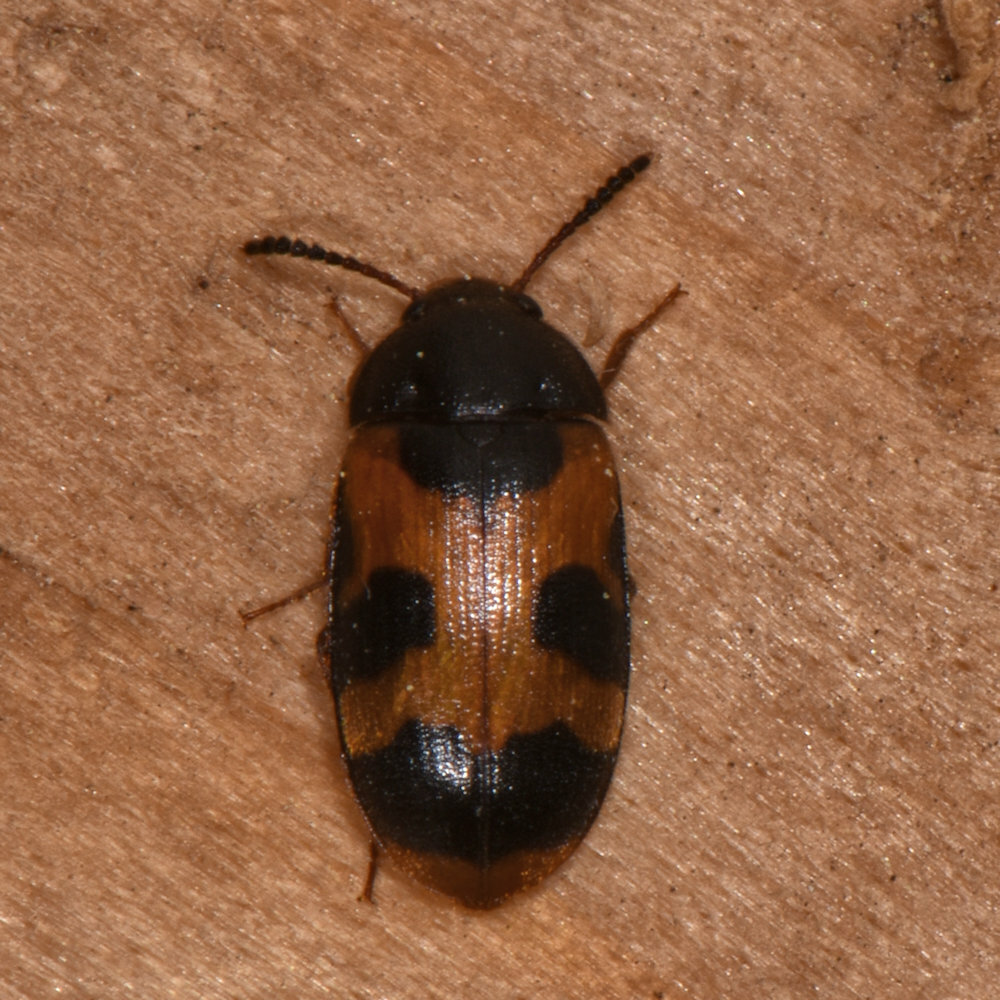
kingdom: Animalia
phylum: Arthropoda
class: Insecta
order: Coleoptera
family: Mycetophagidae
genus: Mycetophagus
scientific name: Mycetophagus punctatus
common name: Hairy fungus beetle
